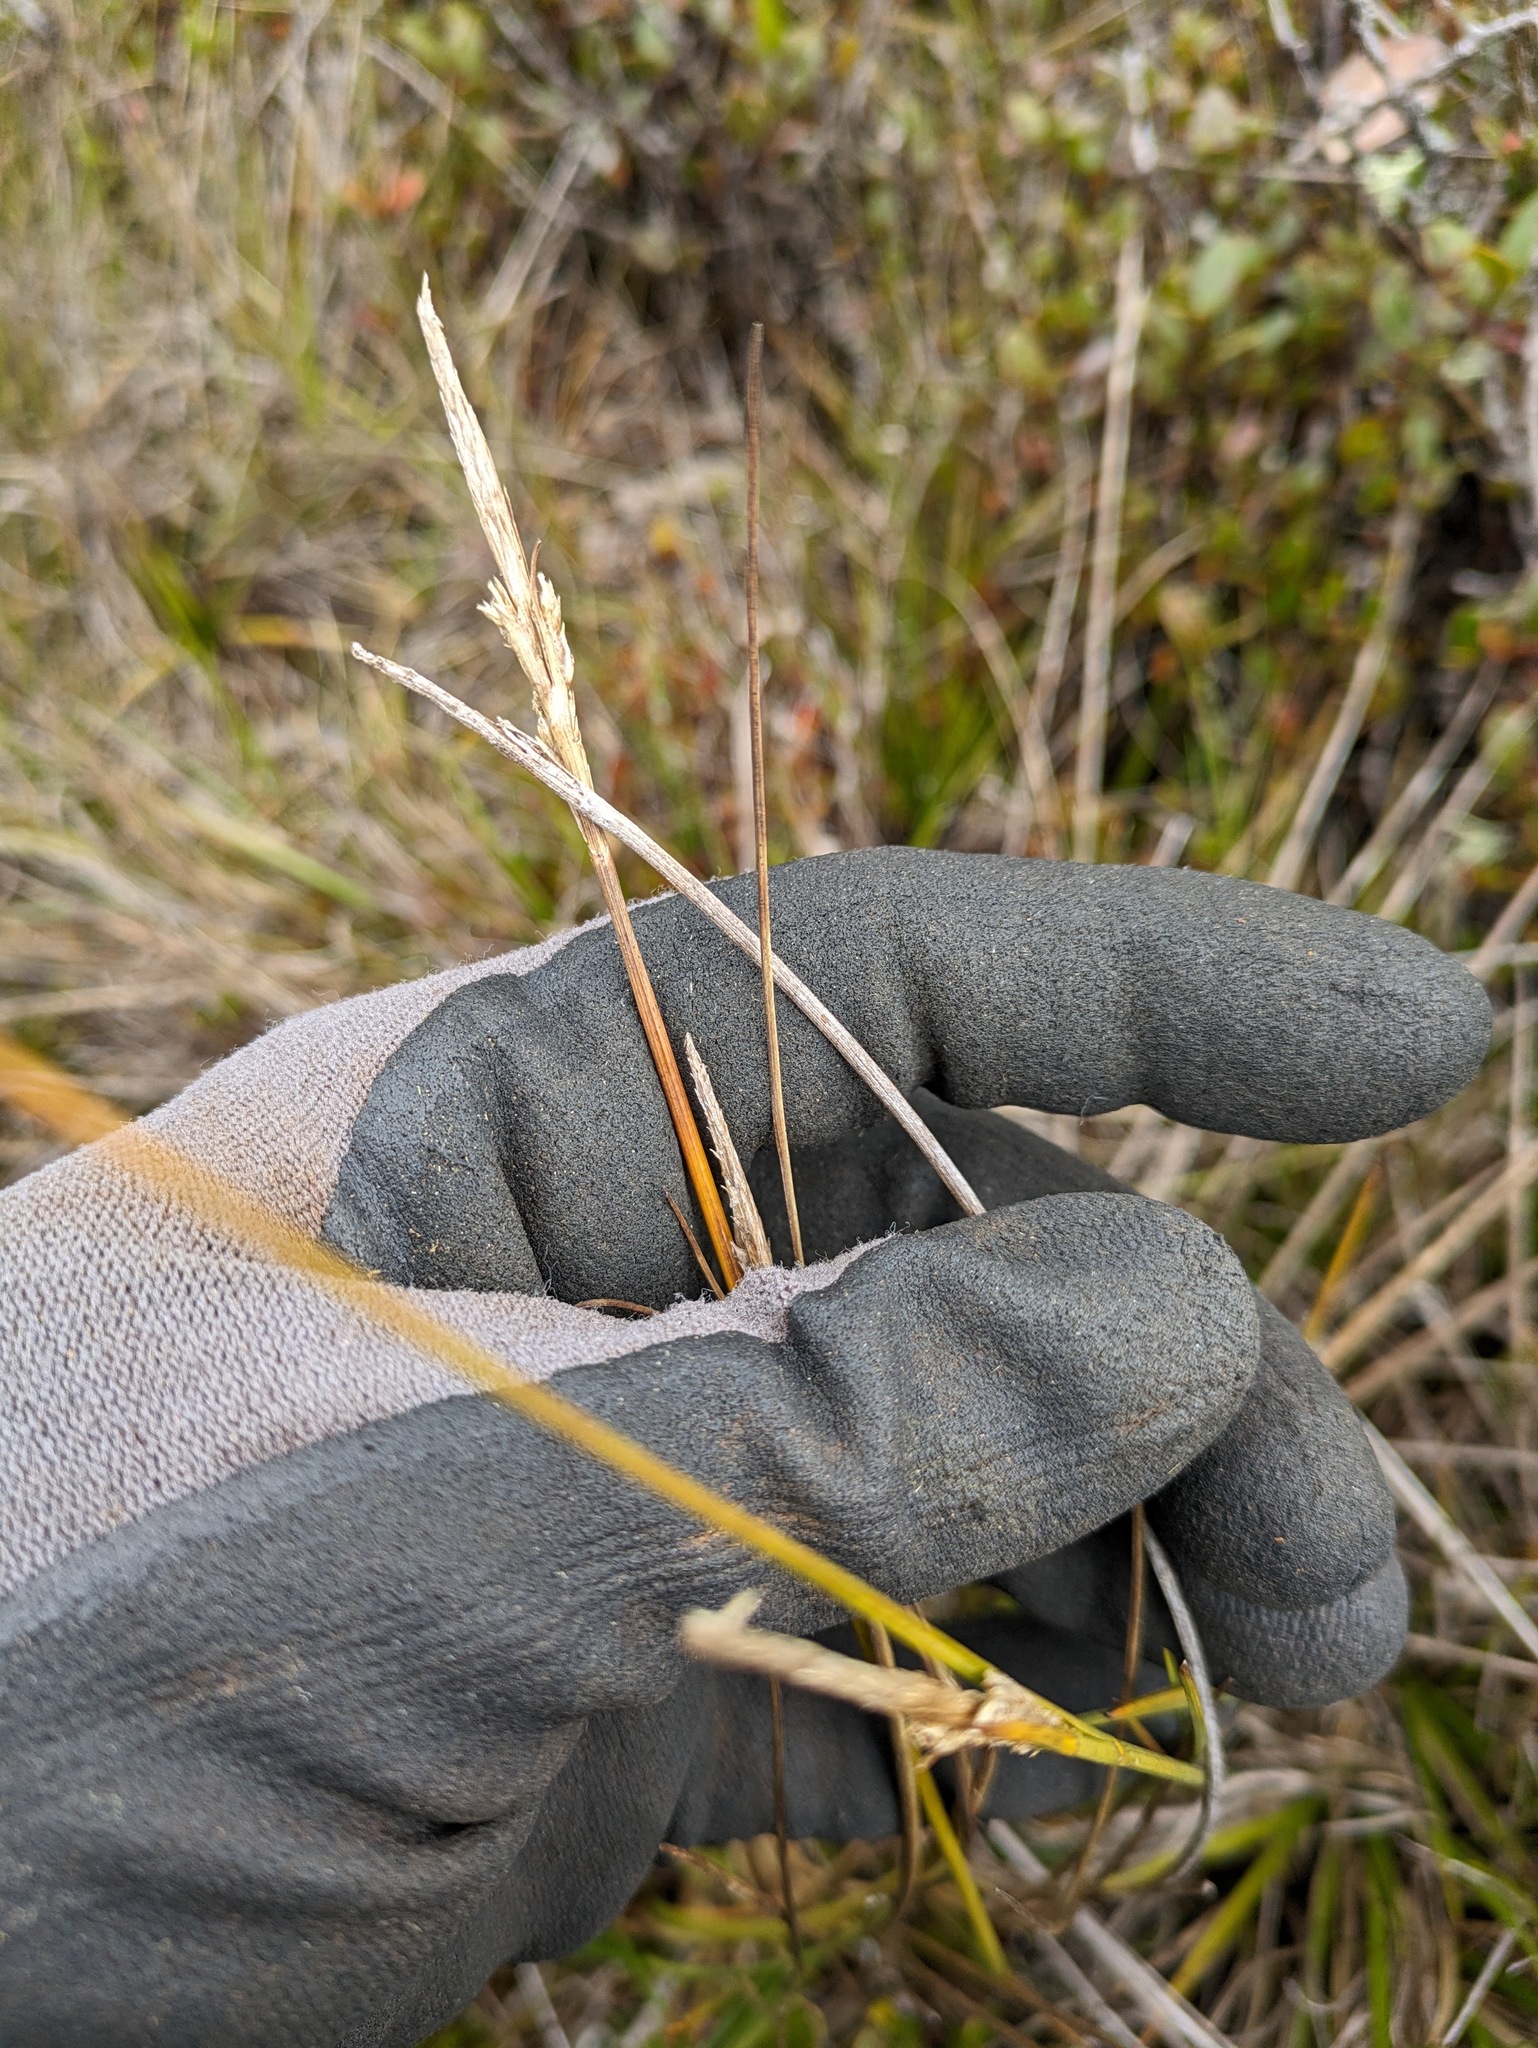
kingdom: Plantae
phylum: Tracheophyta
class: Liliopsida
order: Poales
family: Cyperaceae
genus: Carex
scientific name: Carex montis-eeka
